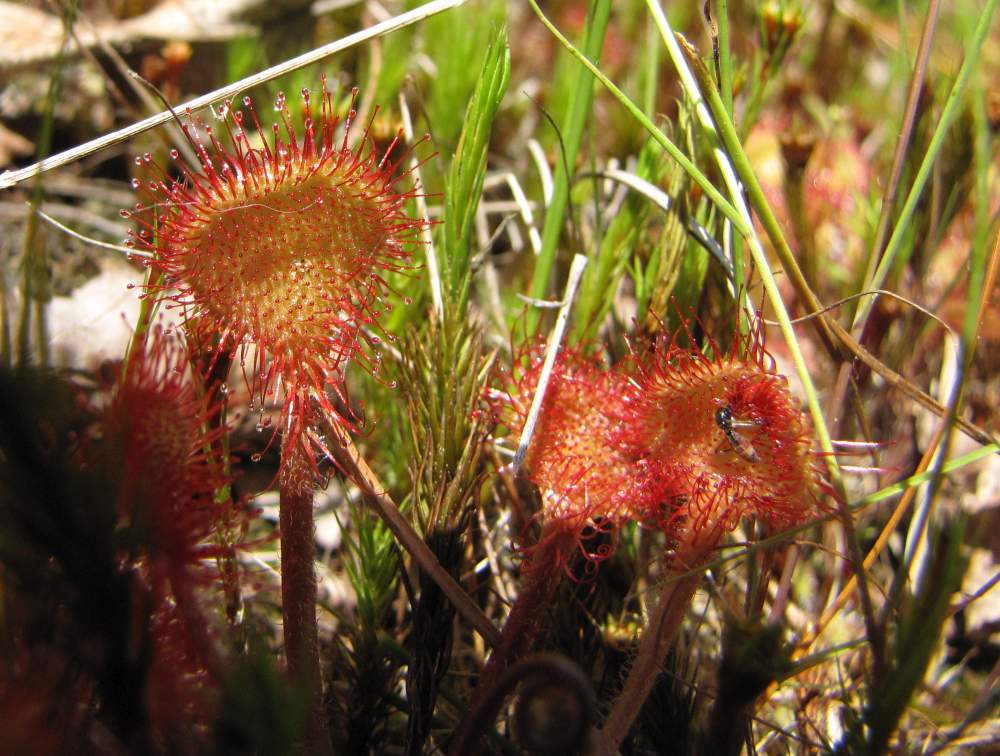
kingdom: Plantae
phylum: Tracheophyta
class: Magnoliopsida
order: Caryophyllales
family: Droseraceae
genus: Drosera
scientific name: Drosera rotundifolia
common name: Round-leaved sundew
